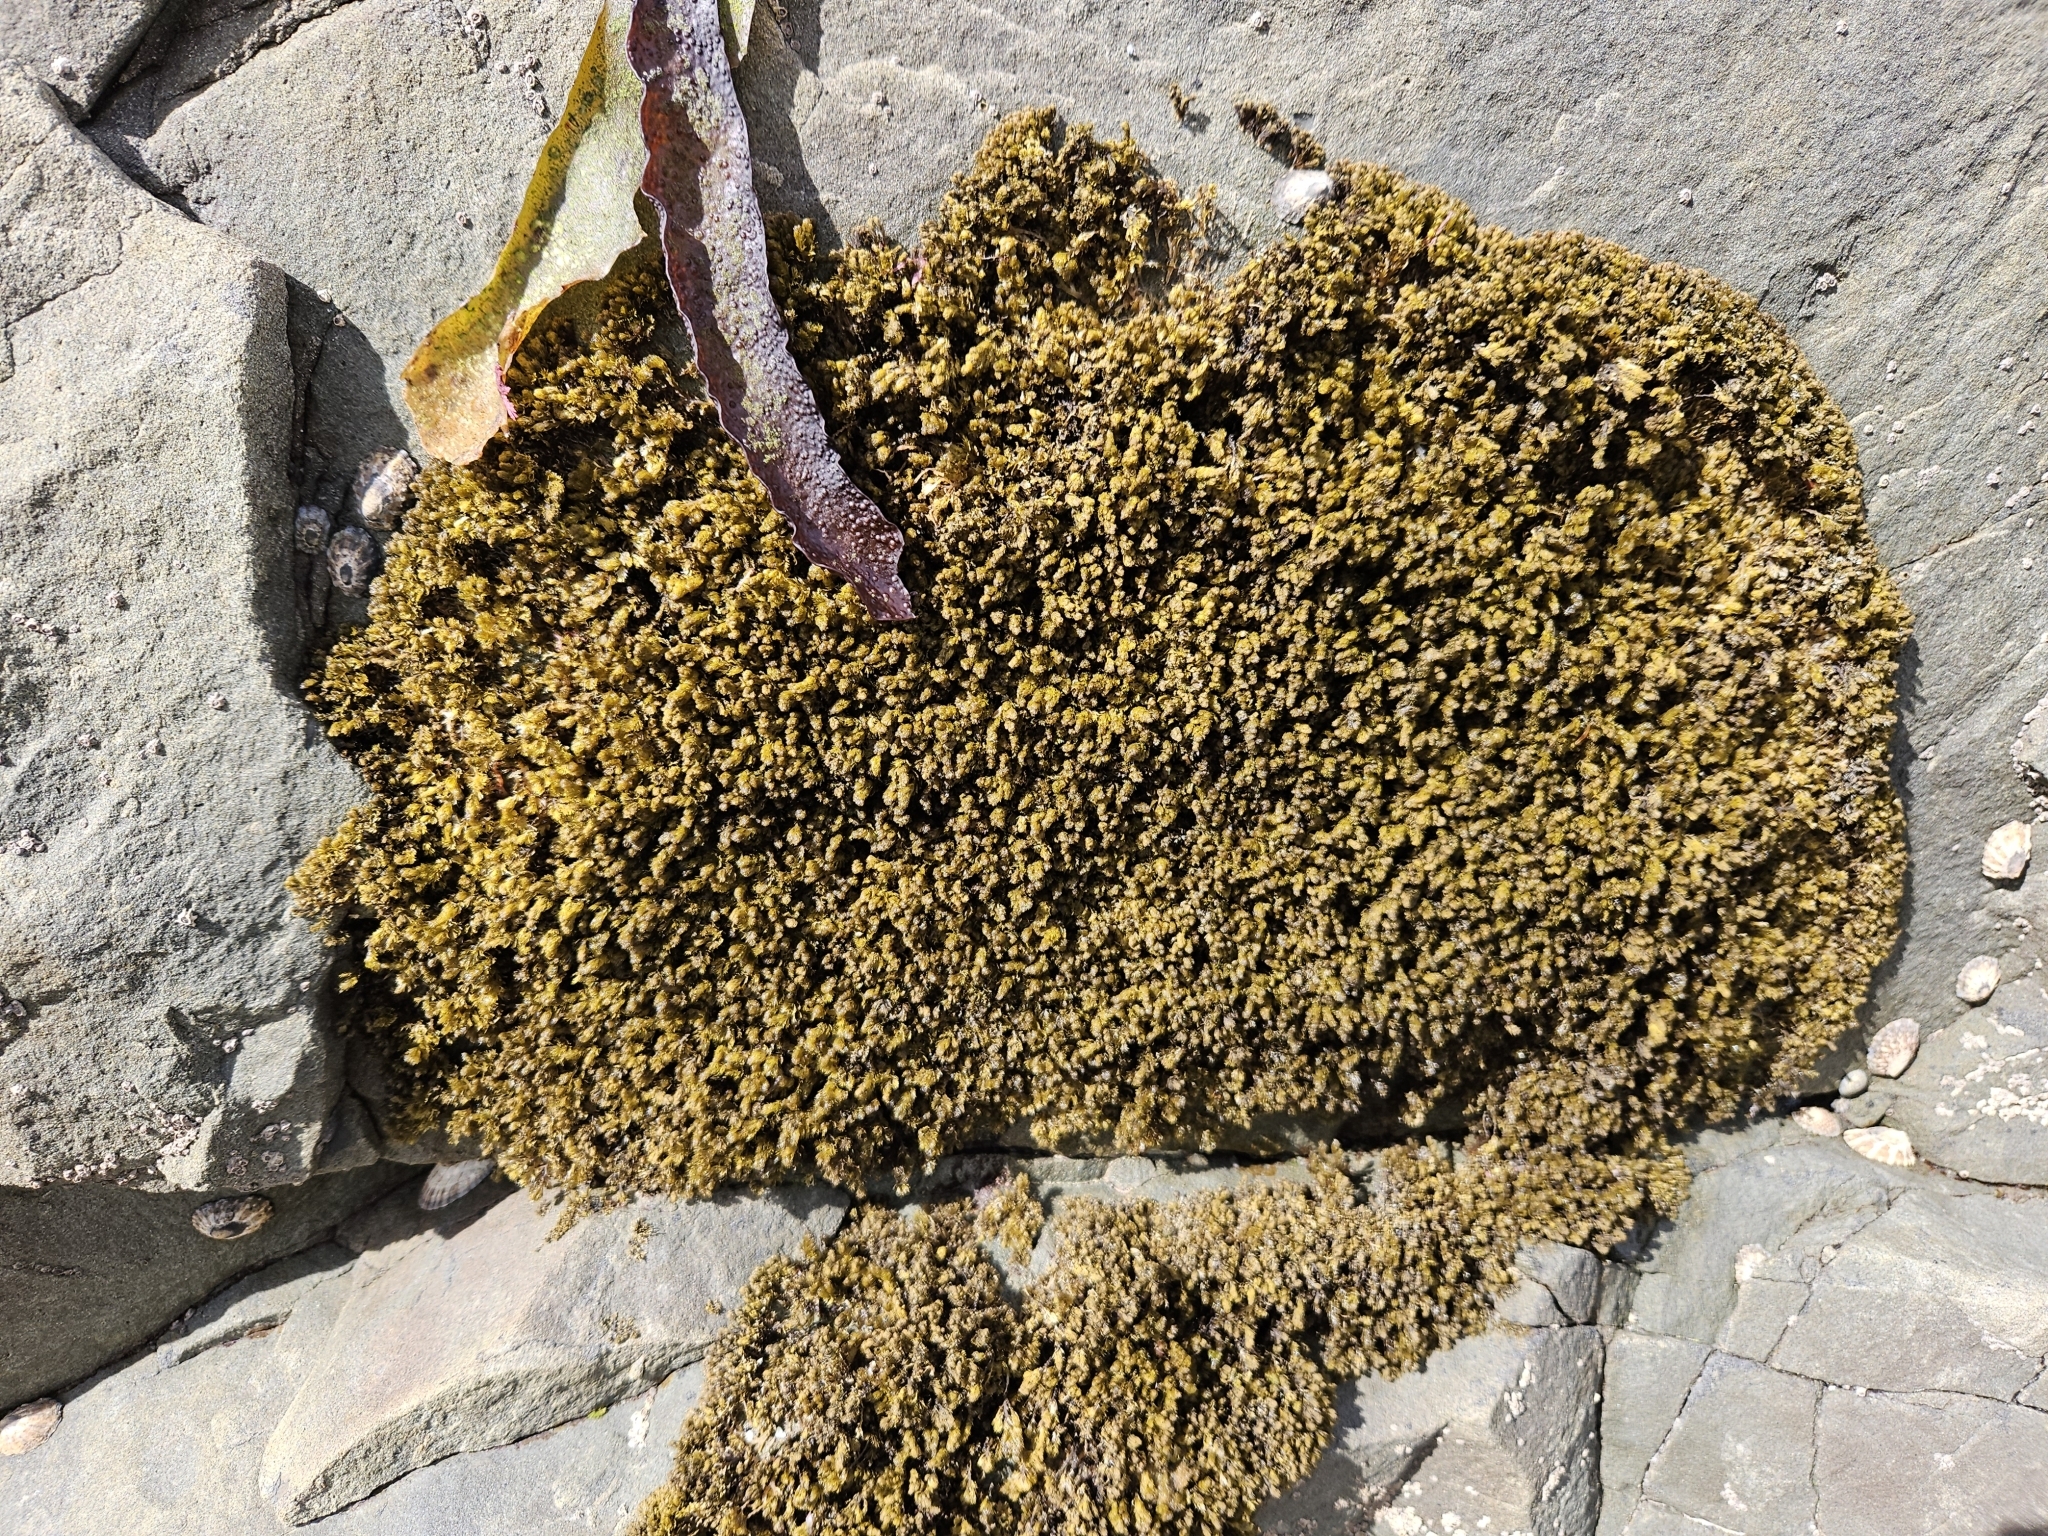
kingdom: Plantae
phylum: Rhodophyta
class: Florideophyceae
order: Ceramiales
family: Rhodomelaceae
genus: Bostrychia
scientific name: Bostrychia arbuscula
